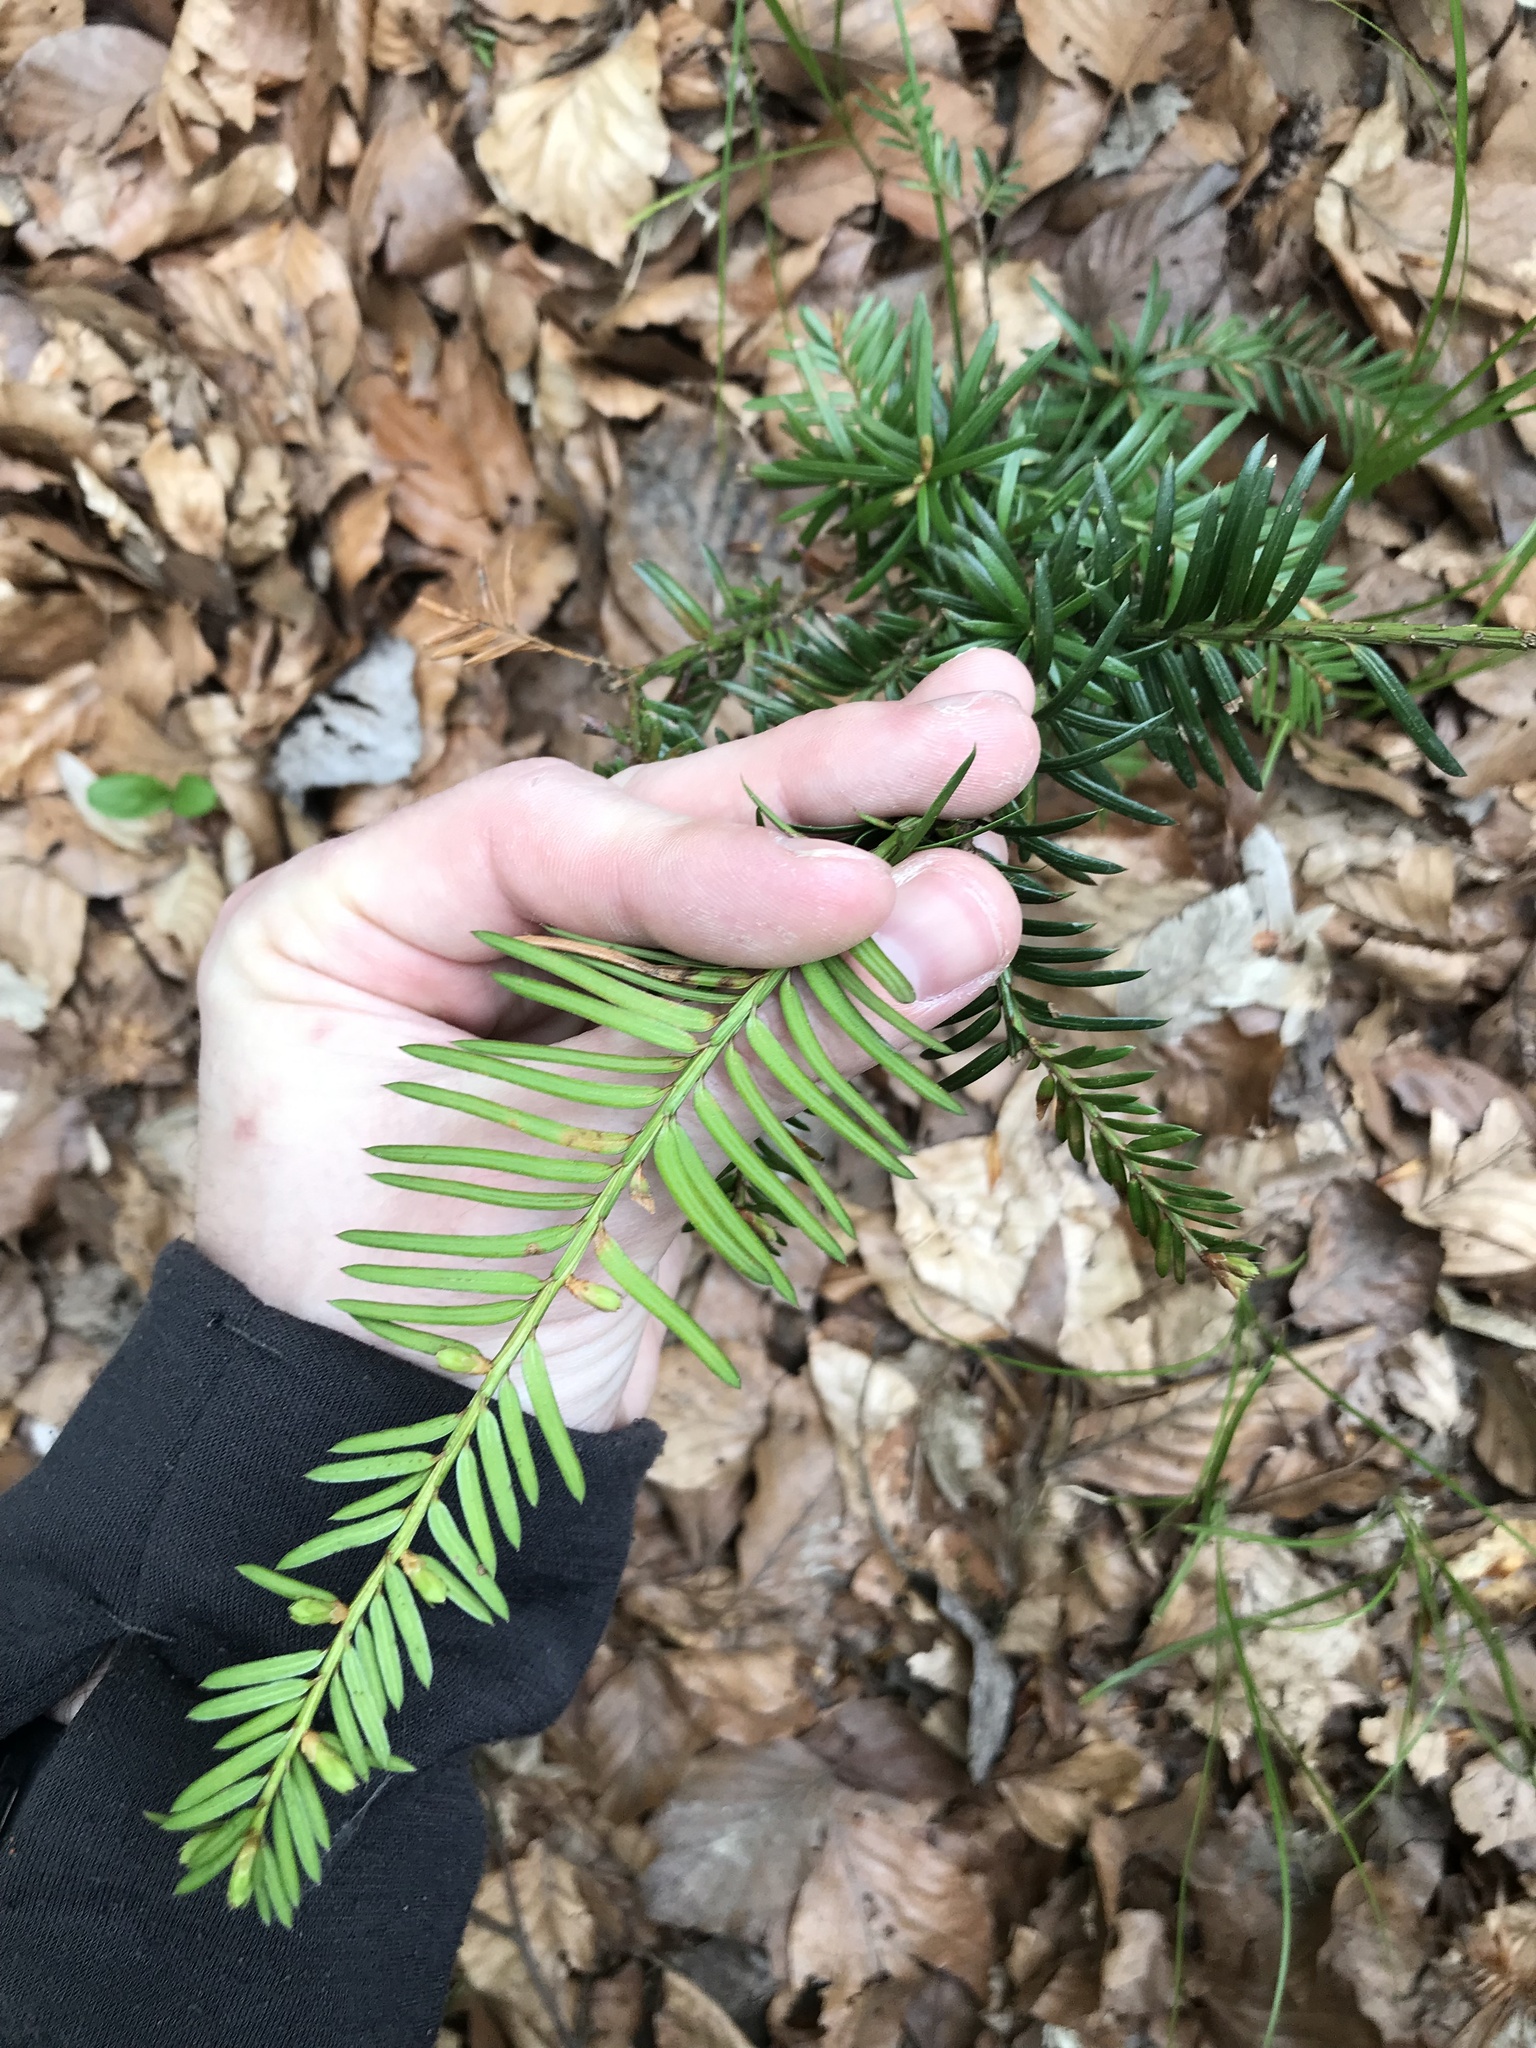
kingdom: Plantae
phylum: Tracheophyta
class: Pinopsida
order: Pinales
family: Taxaceae
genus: Taxus
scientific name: Taxus baccata
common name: Yew
